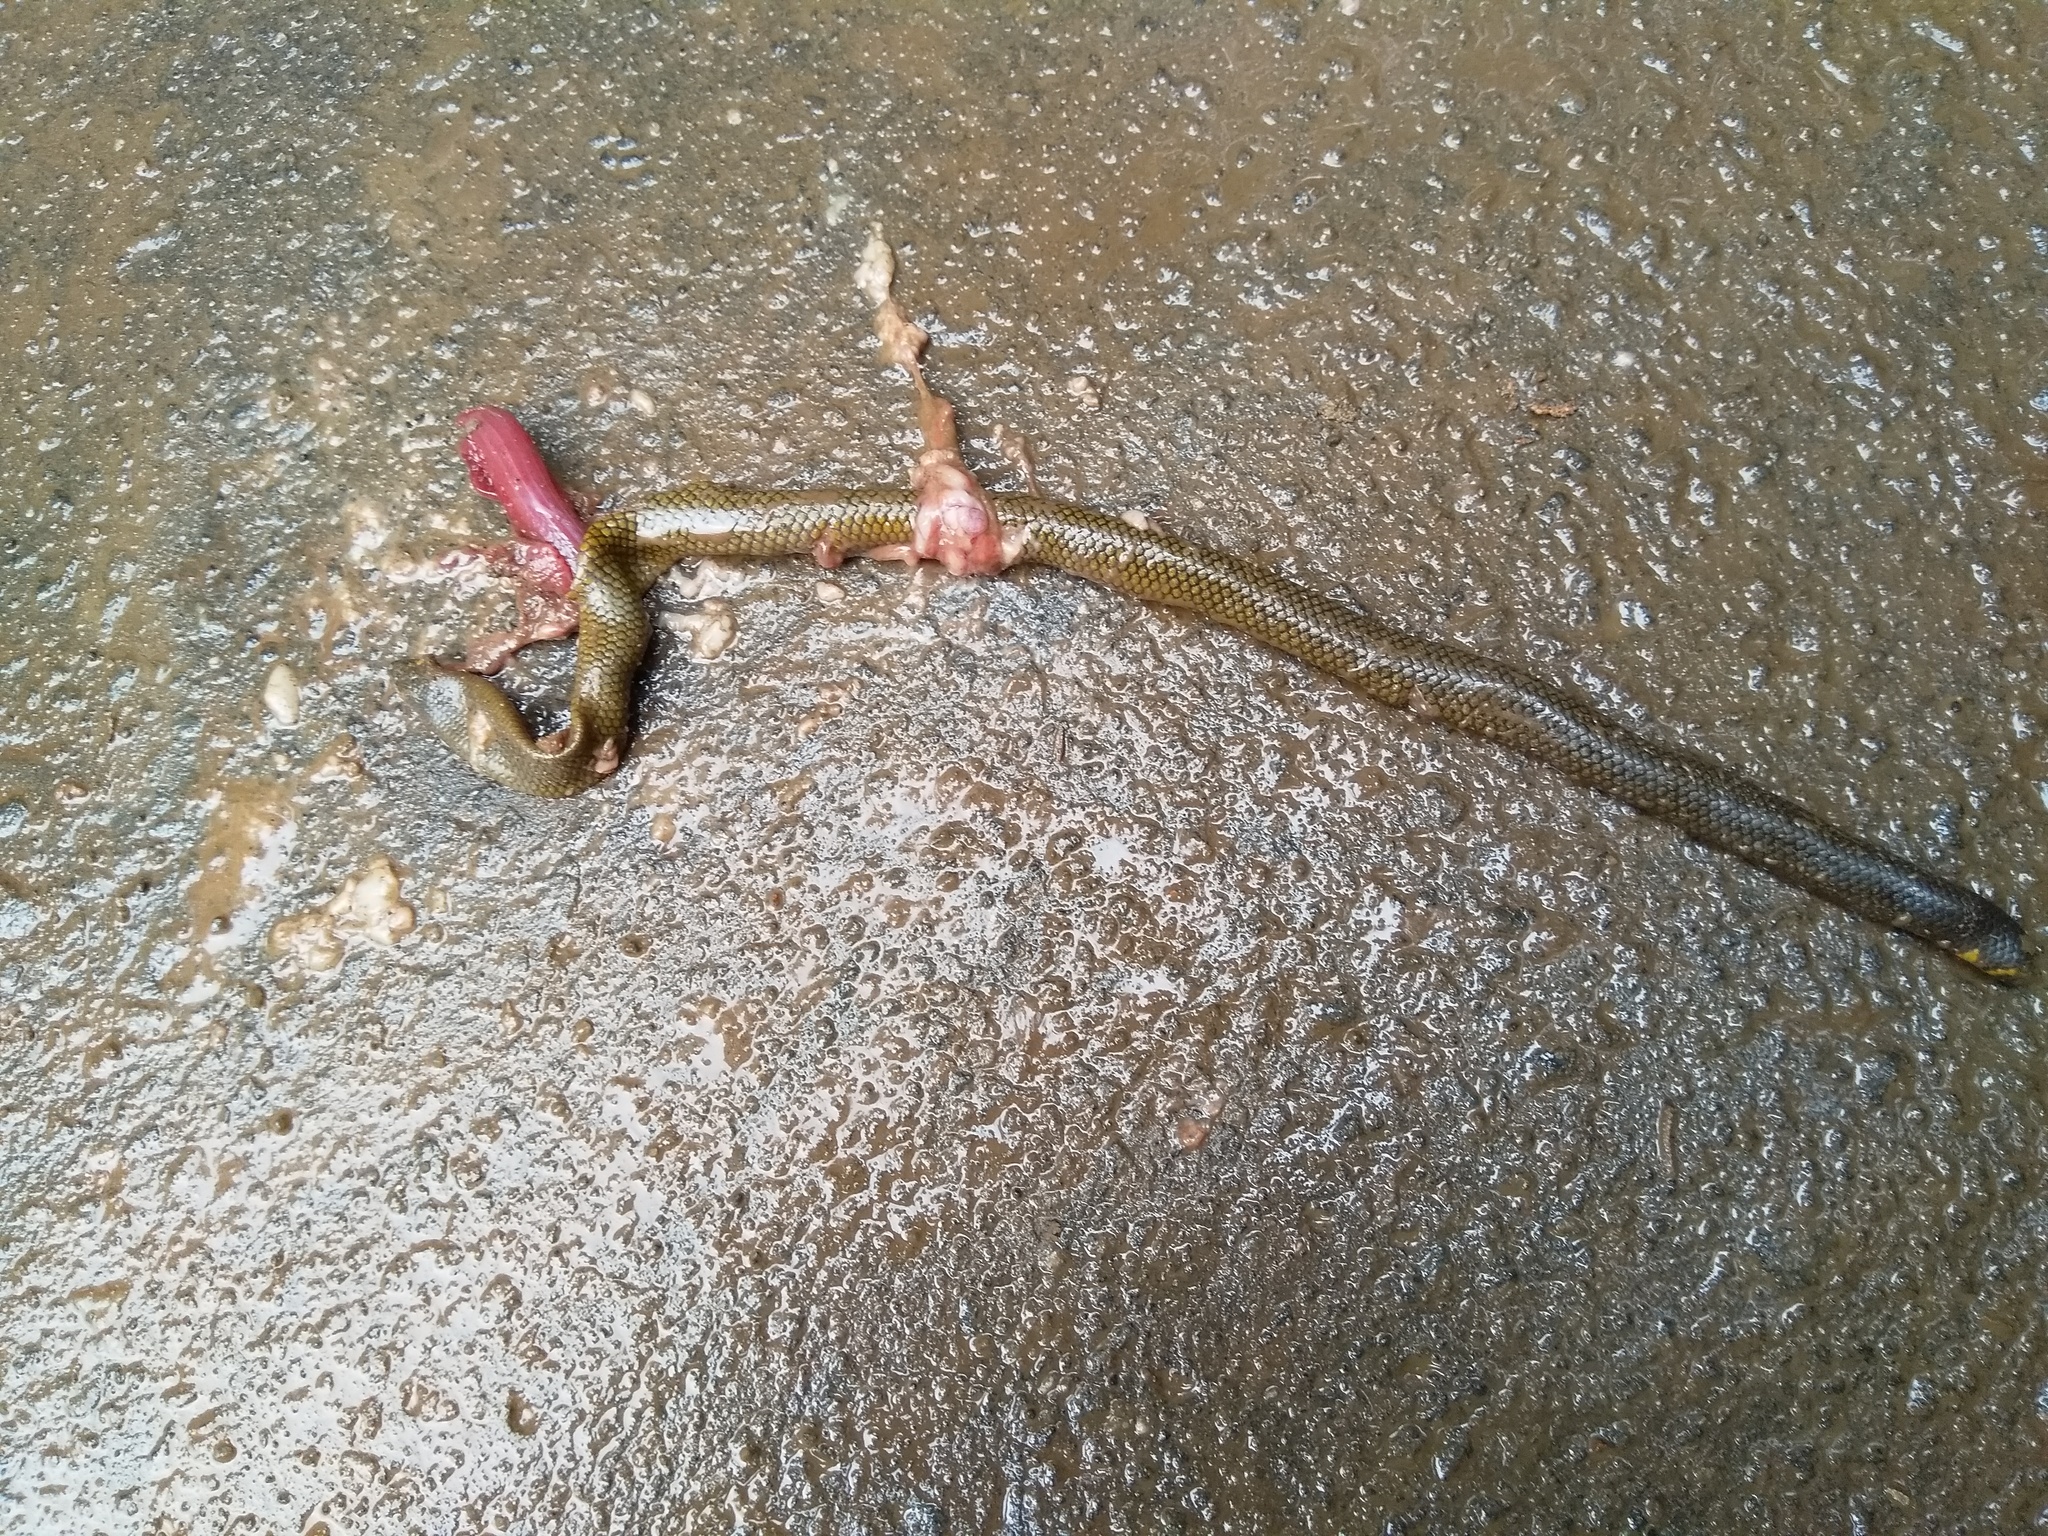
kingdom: Animalia
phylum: Chordata
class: Squamata
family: Uropeltidae
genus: Uropeltis
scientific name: Uropeltis pulneyensis
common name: Indian earth snake
